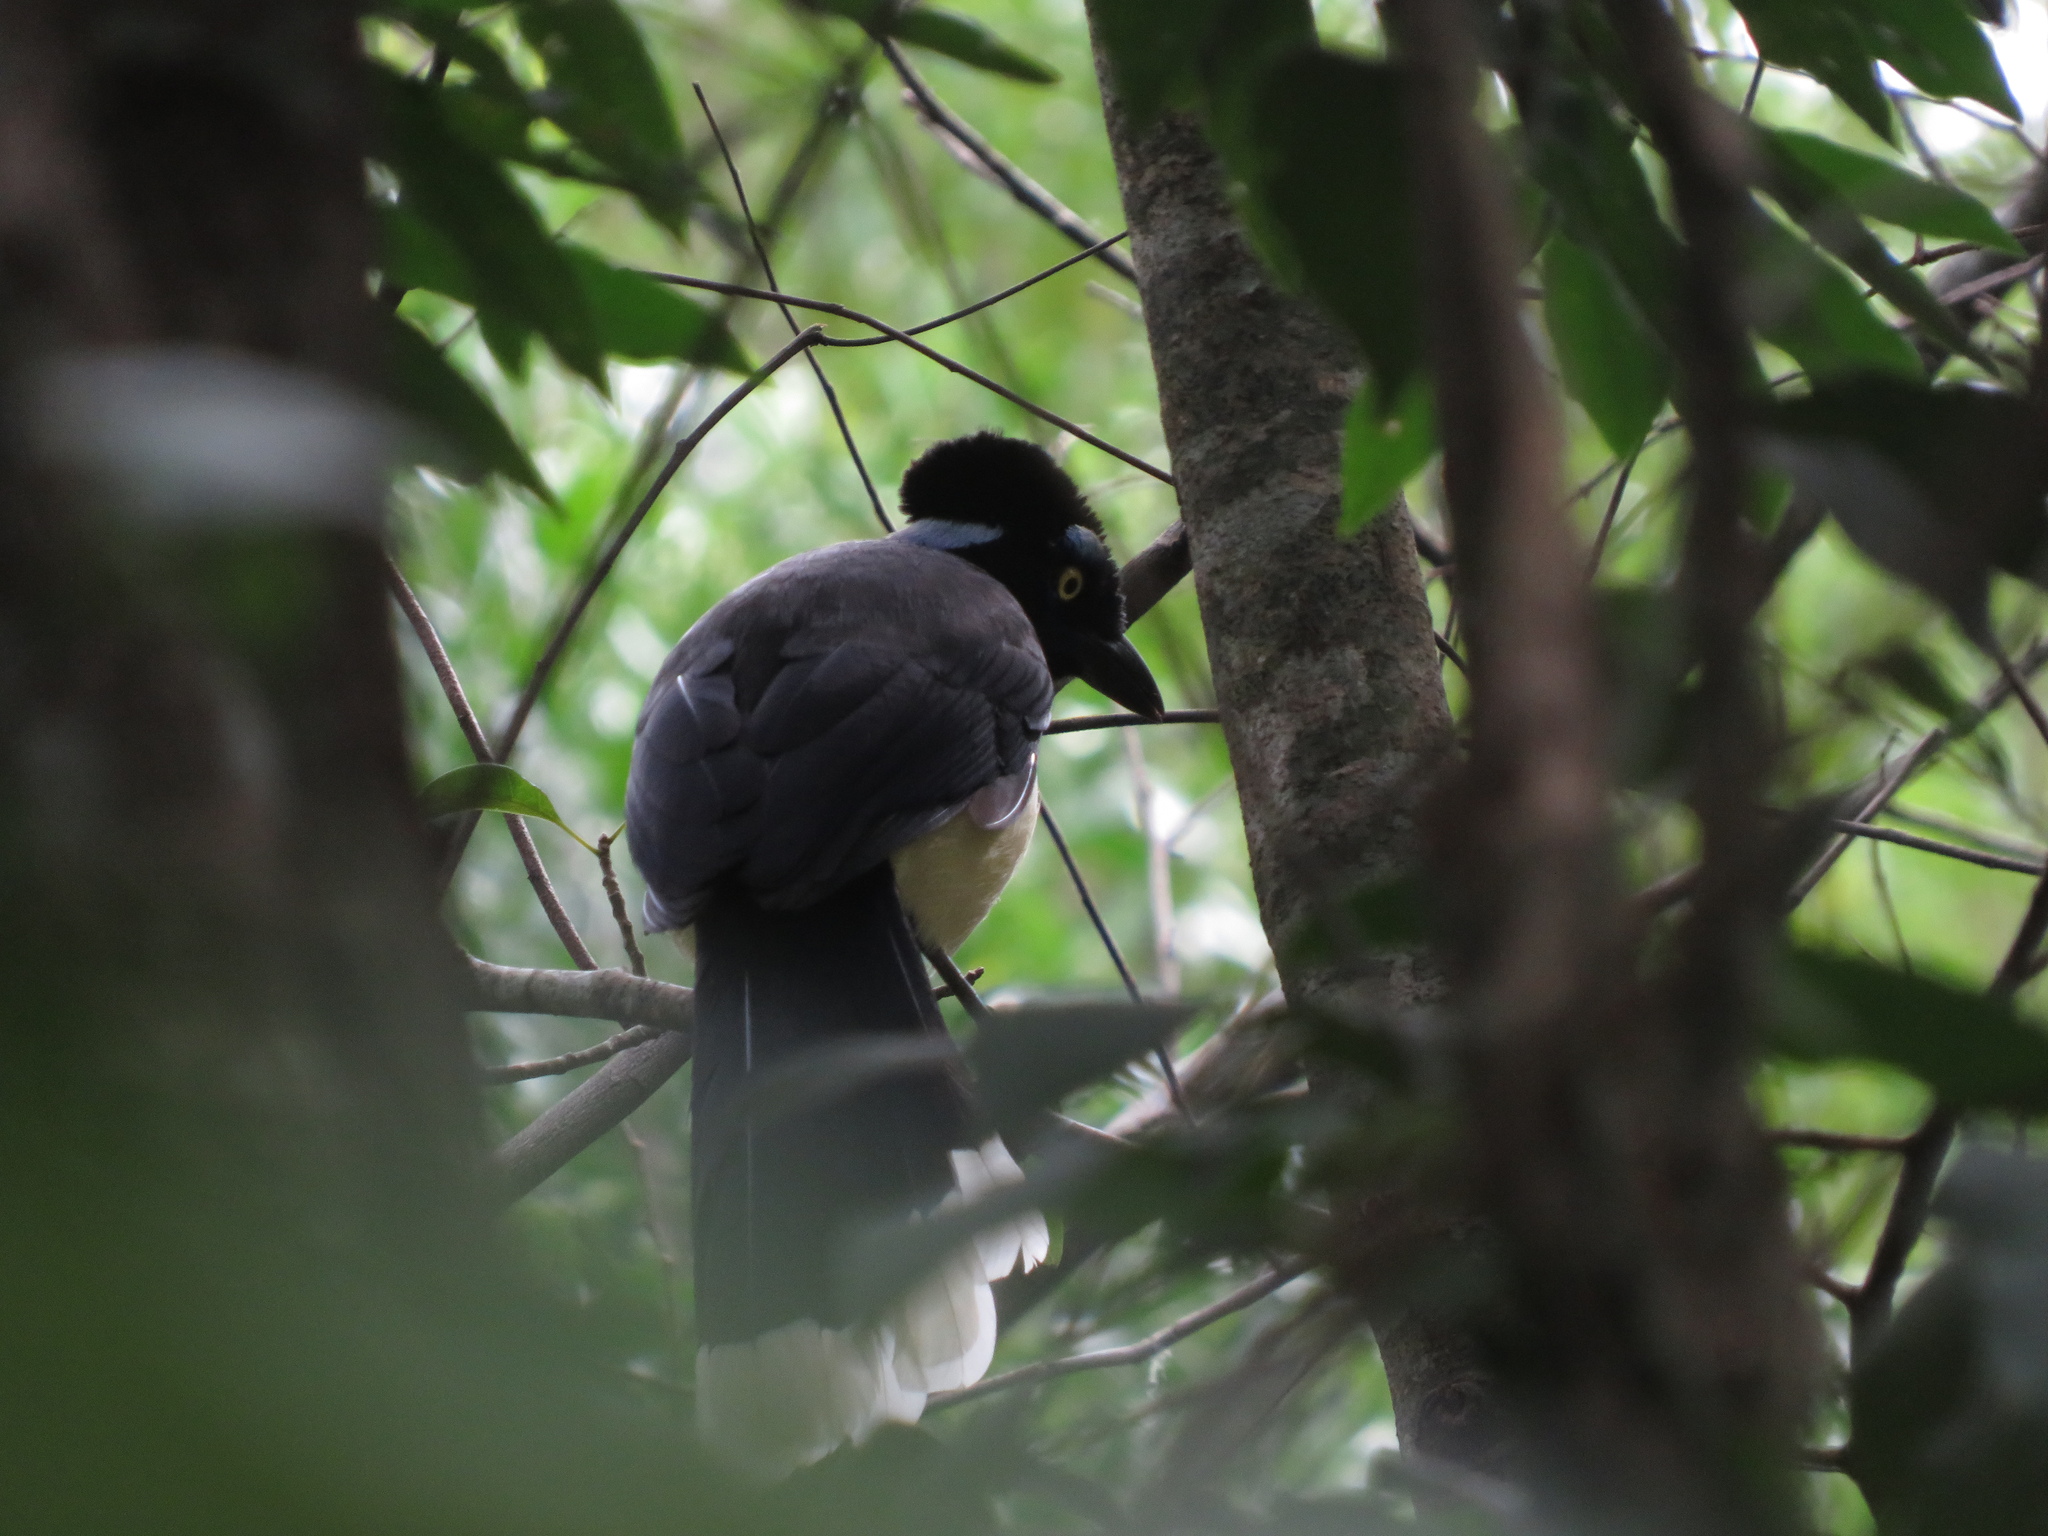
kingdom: Animalia
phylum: Chordata
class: Aves
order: Passeriformes
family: Corvidae
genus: Cyanocorax
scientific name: Cyanocorax chrysops
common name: Plush-crested jay
